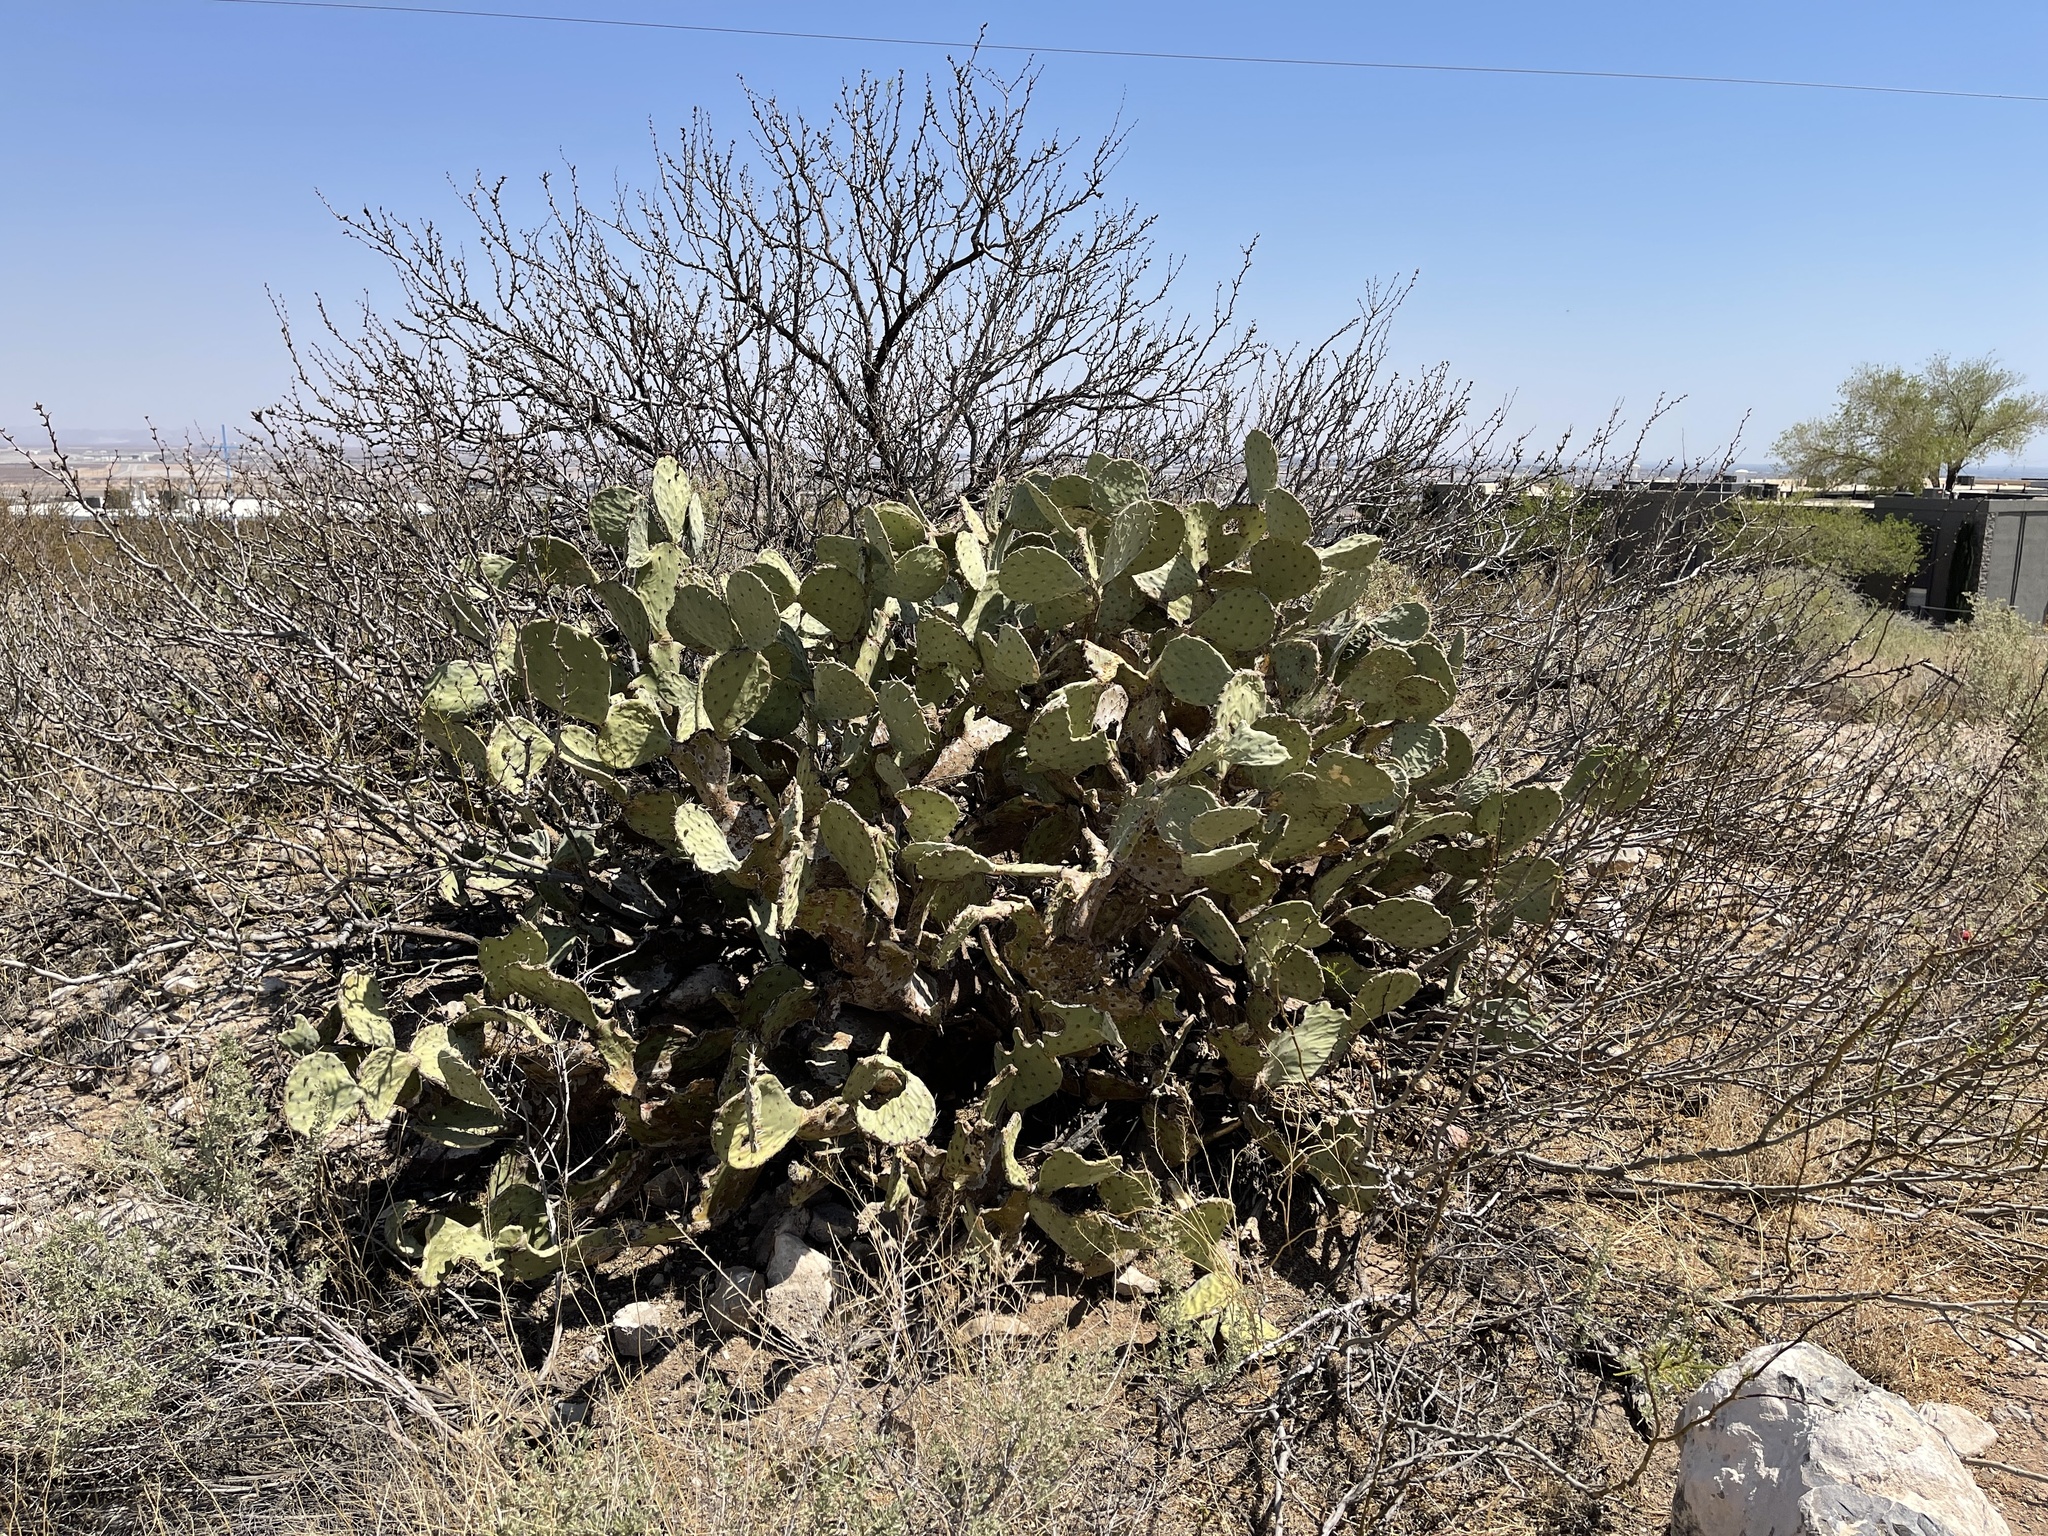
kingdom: Plantae
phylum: Tracheophyta
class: Magnoliopsida
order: Caryophyllales
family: Cactaceae
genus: Opuntia
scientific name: Opuntia engelmannii
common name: Cactus-apple
